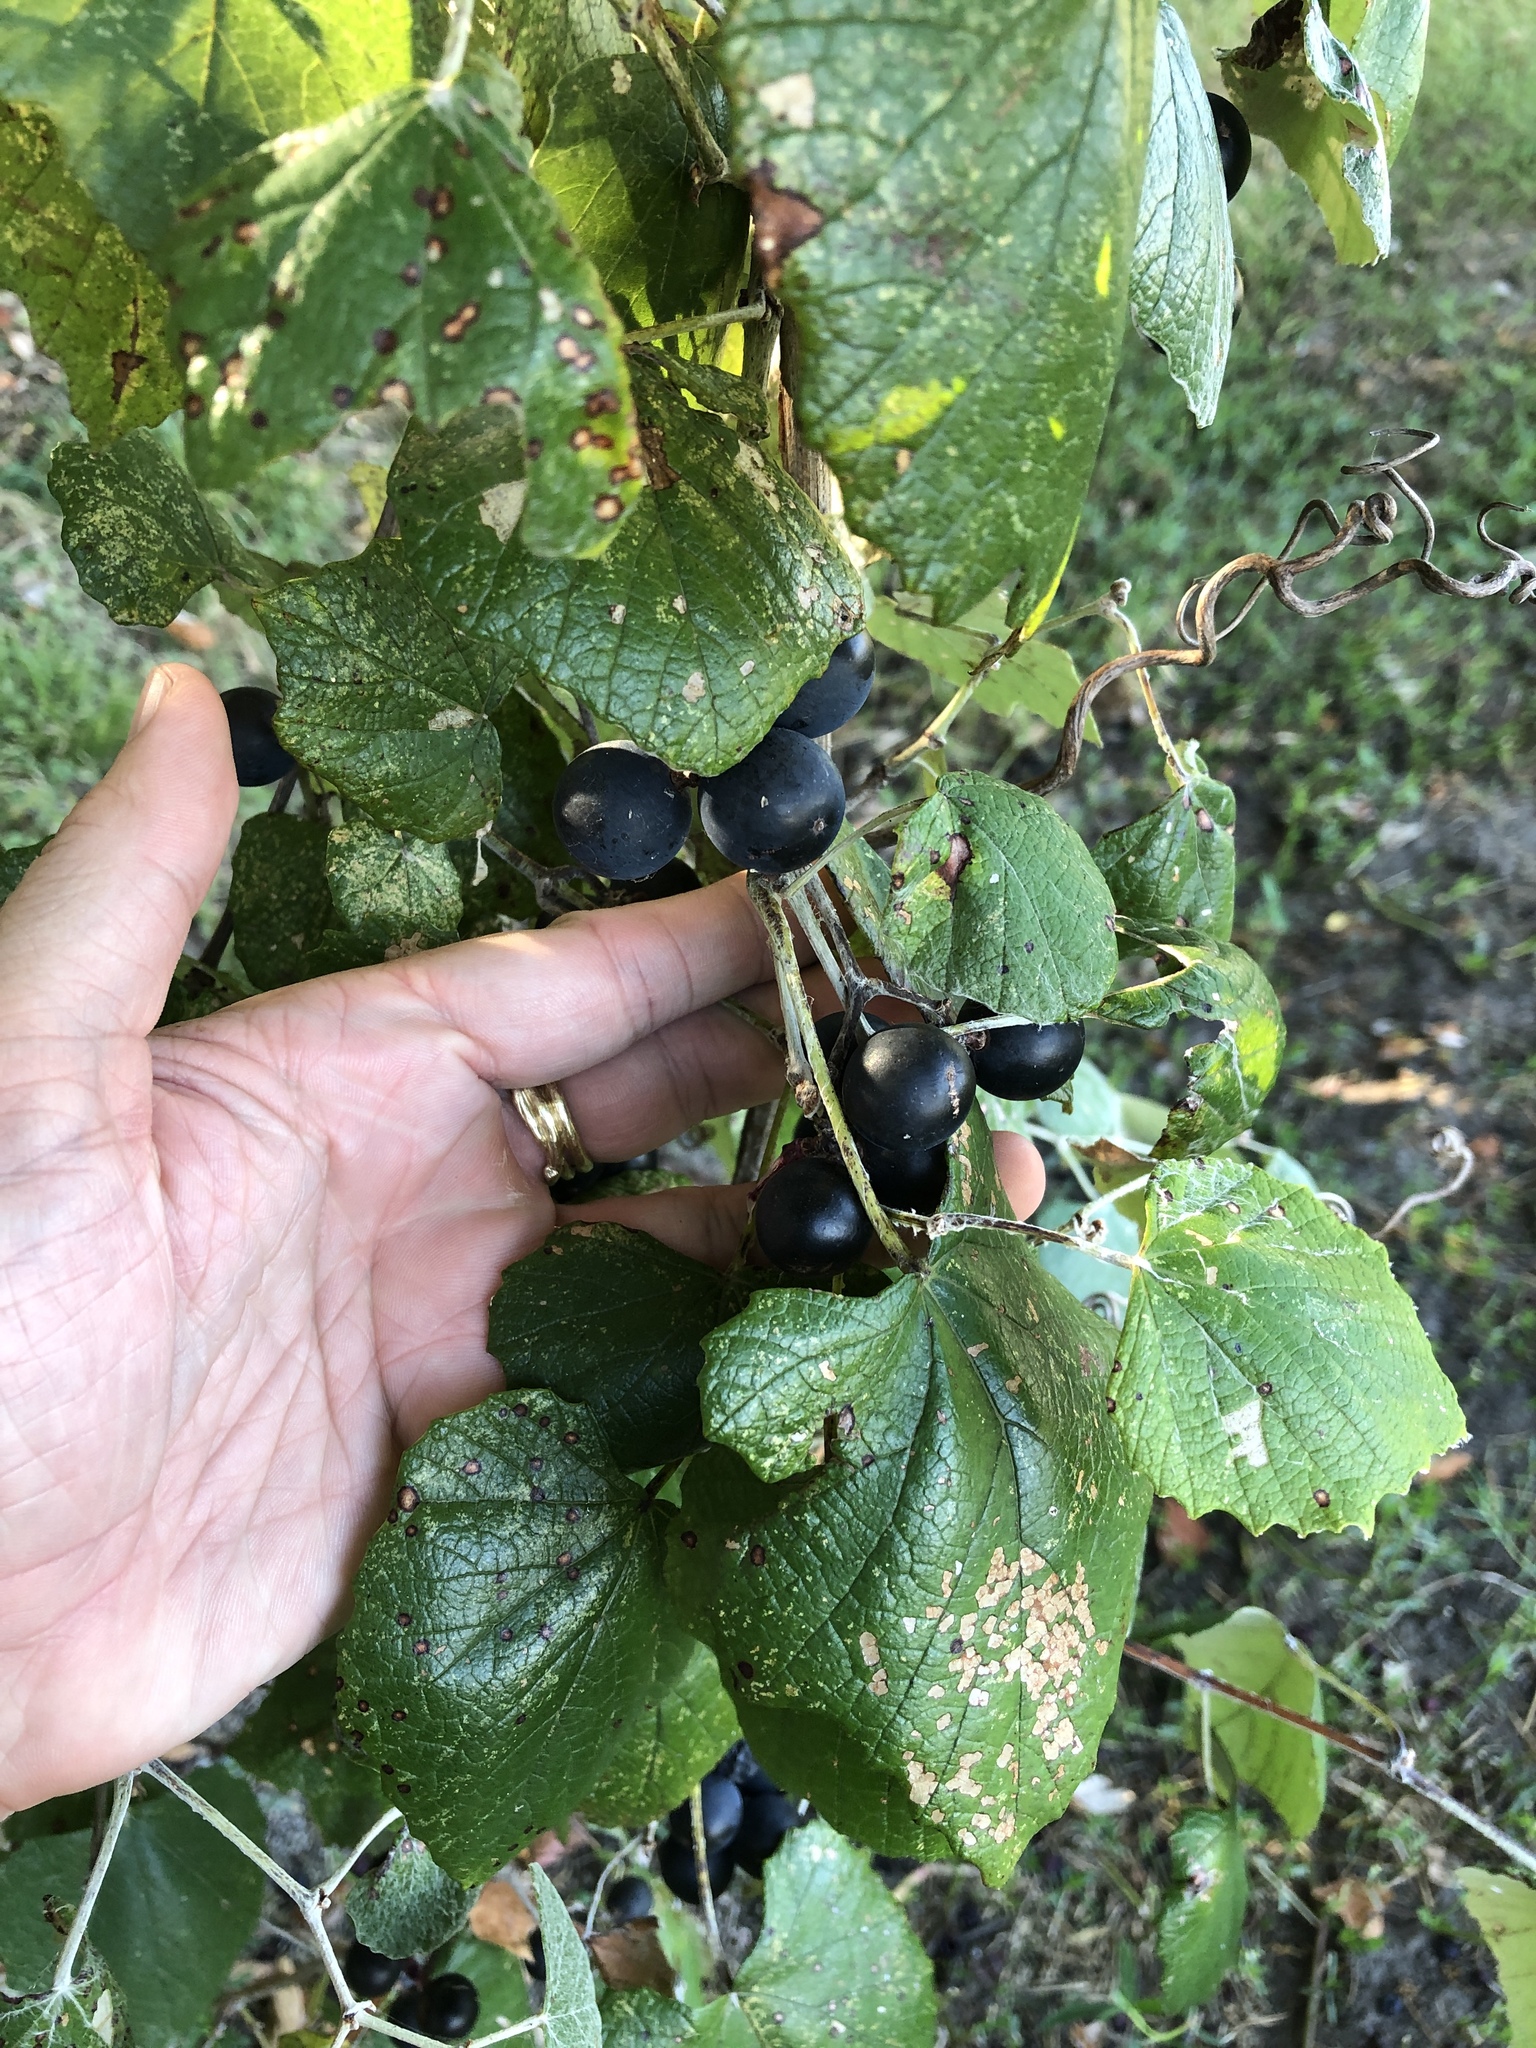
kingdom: Plantae
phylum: Tracheophyta
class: Magnoliopsida
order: Vitales
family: Vitaceae
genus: Vitis
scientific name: Vitis mustangensis
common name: Mustang grape
